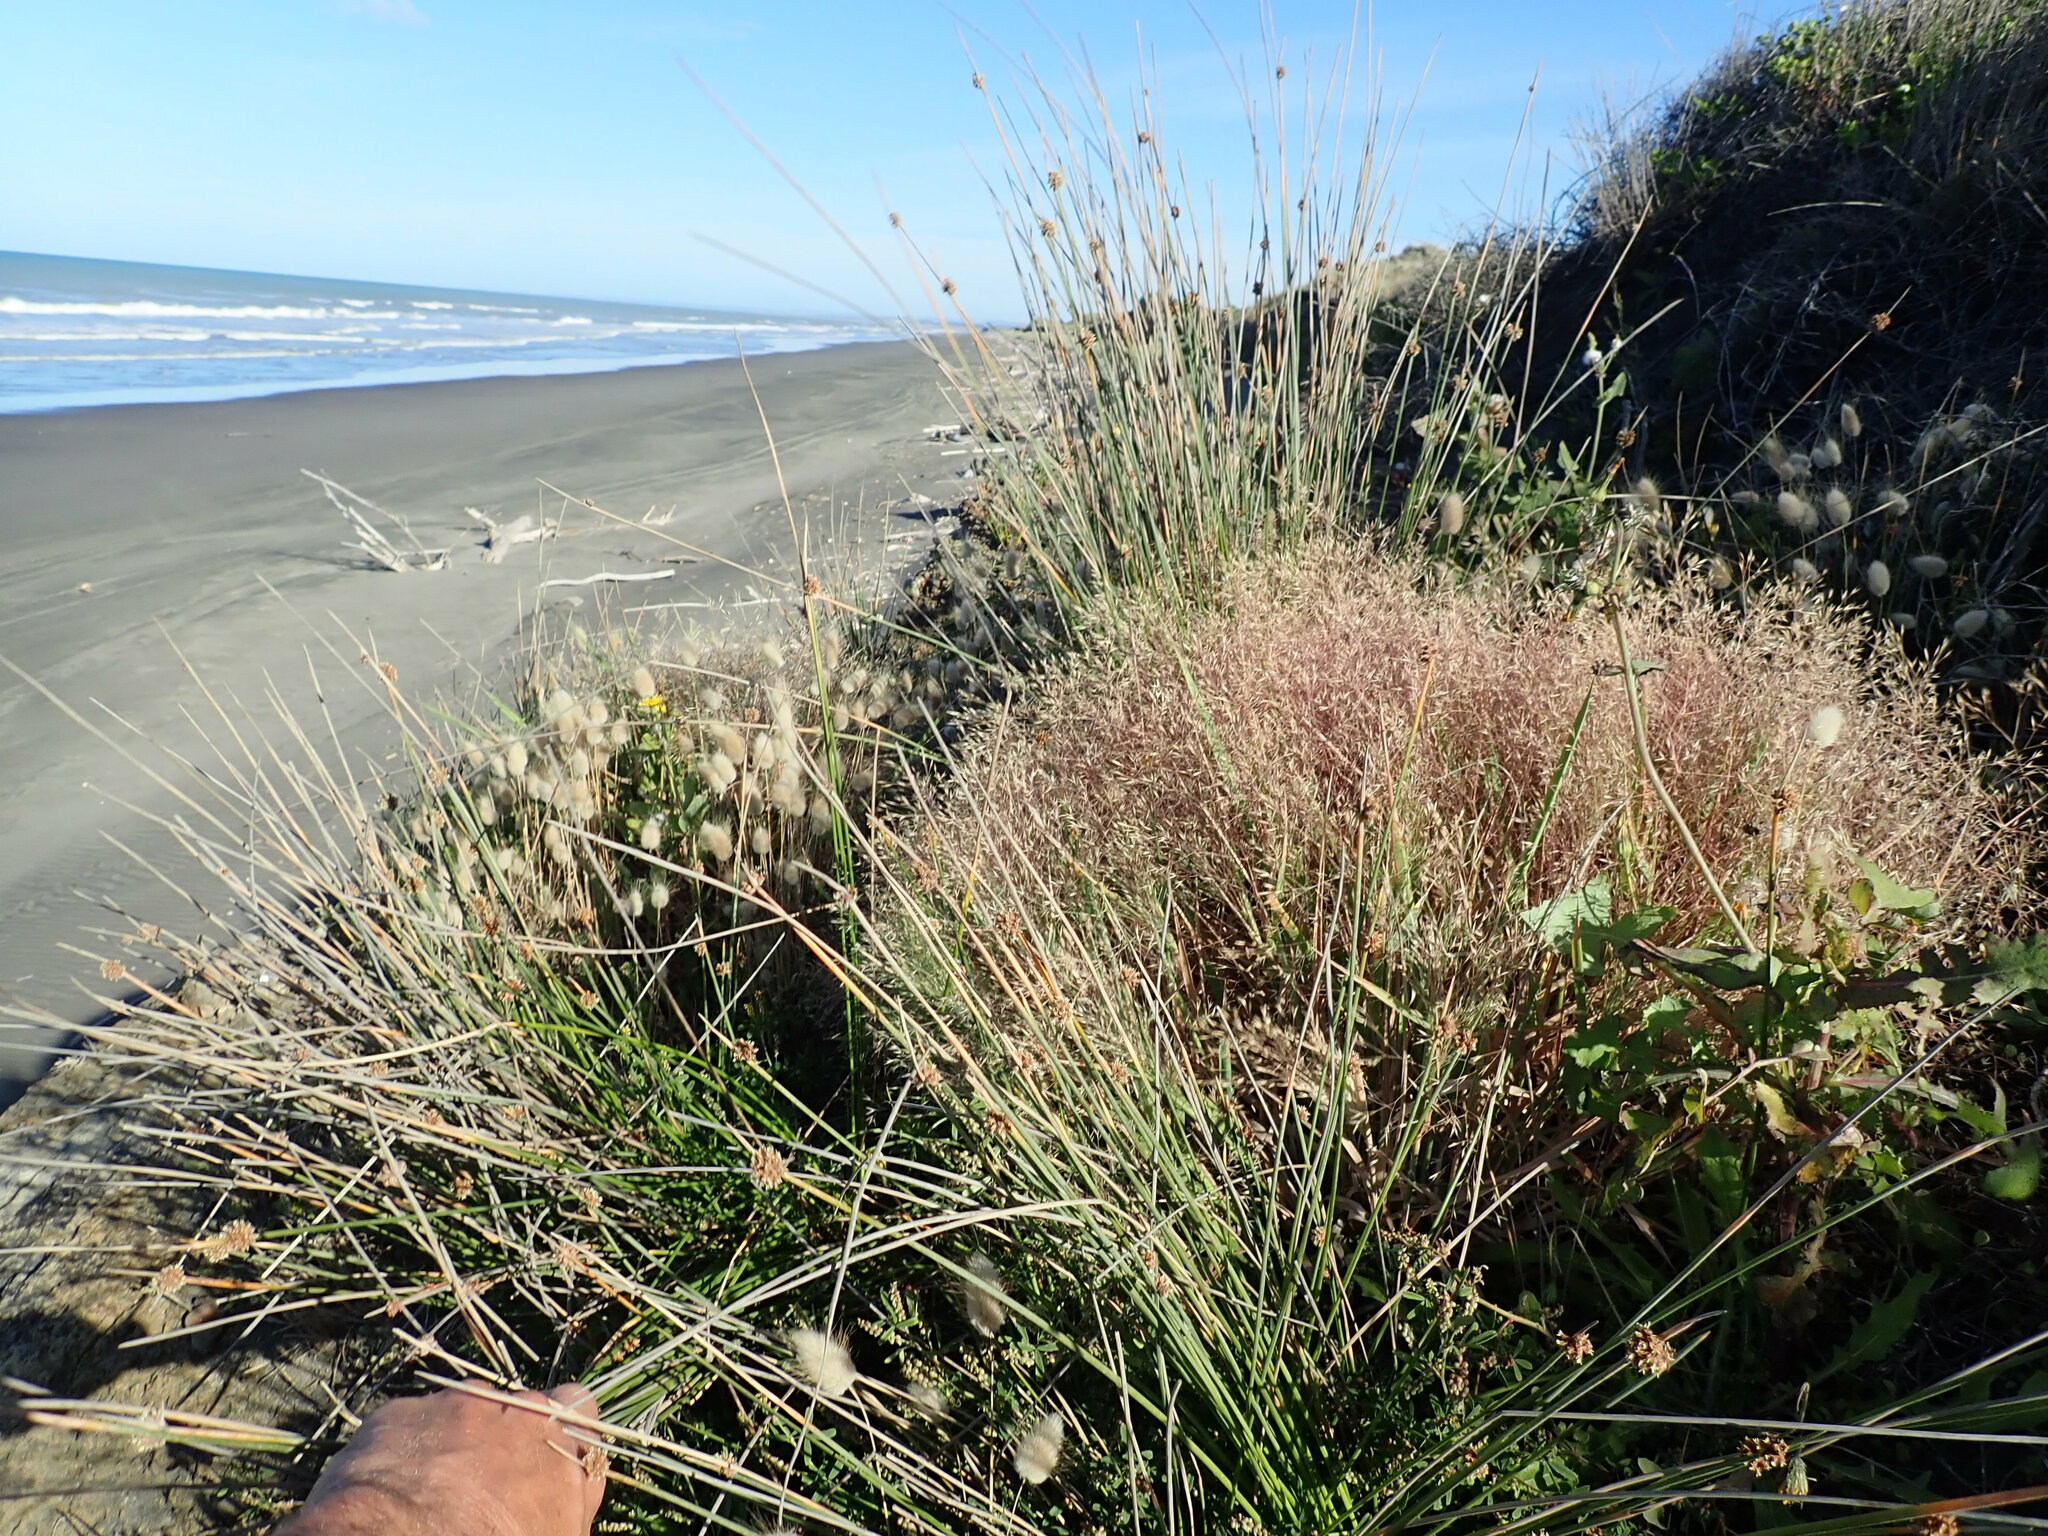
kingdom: Plantae
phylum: Tracheophyta
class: Liliopsida
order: Poales
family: Poaceae
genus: Lagurus
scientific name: Lagurus ovatus
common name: Hare's-tail
